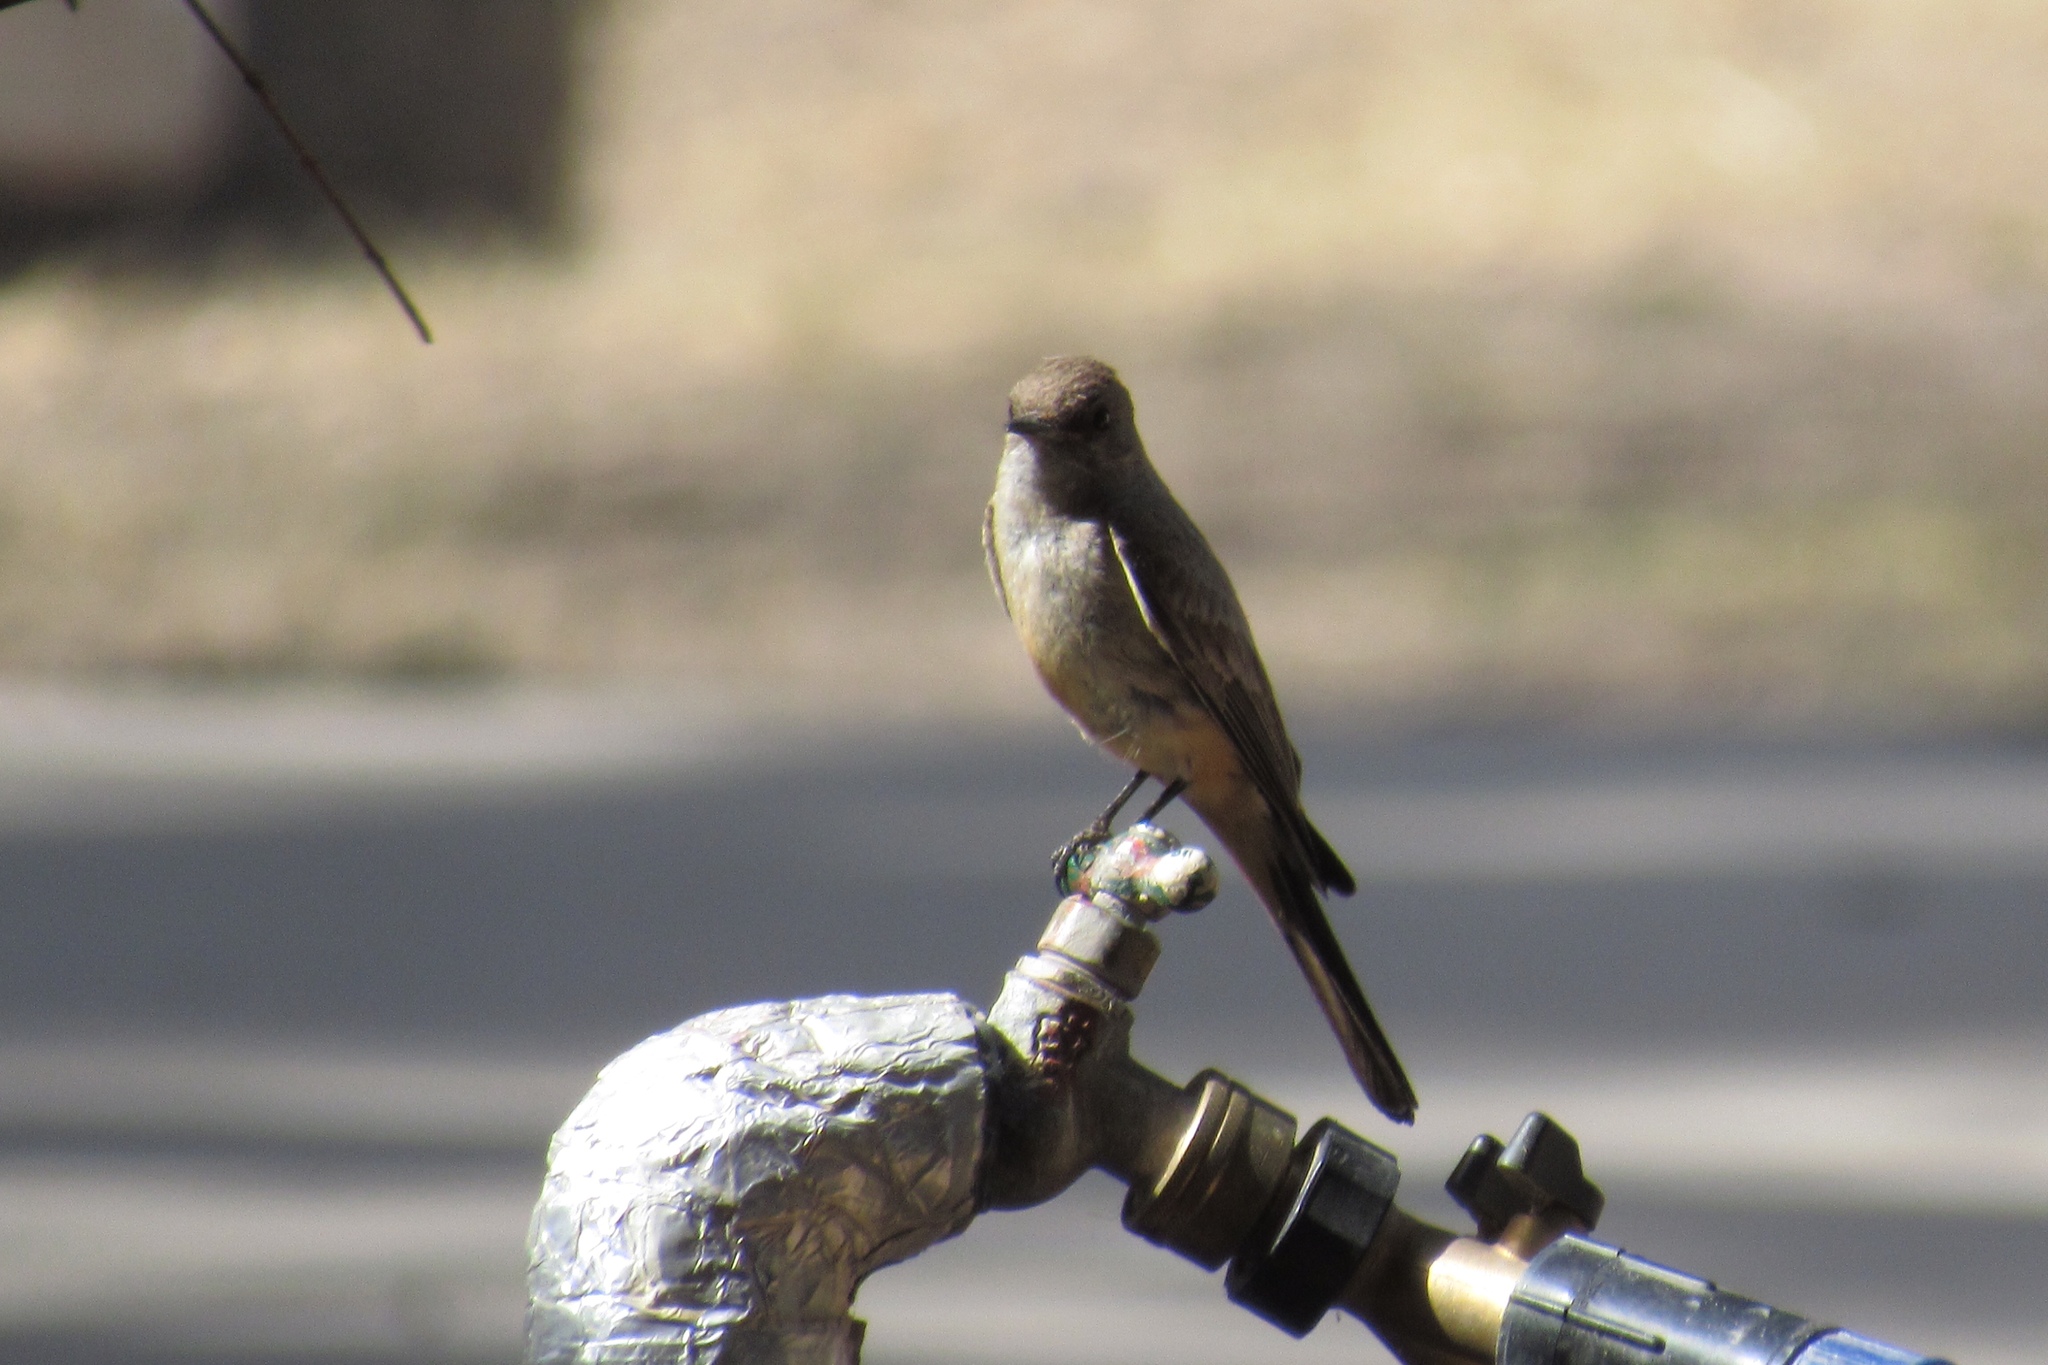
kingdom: Animalia
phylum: Chordata
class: Aves
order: Passeriformes
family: Tyrannidae
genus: Sayornis
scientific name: Sayornis saya
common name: Say's phoebe
